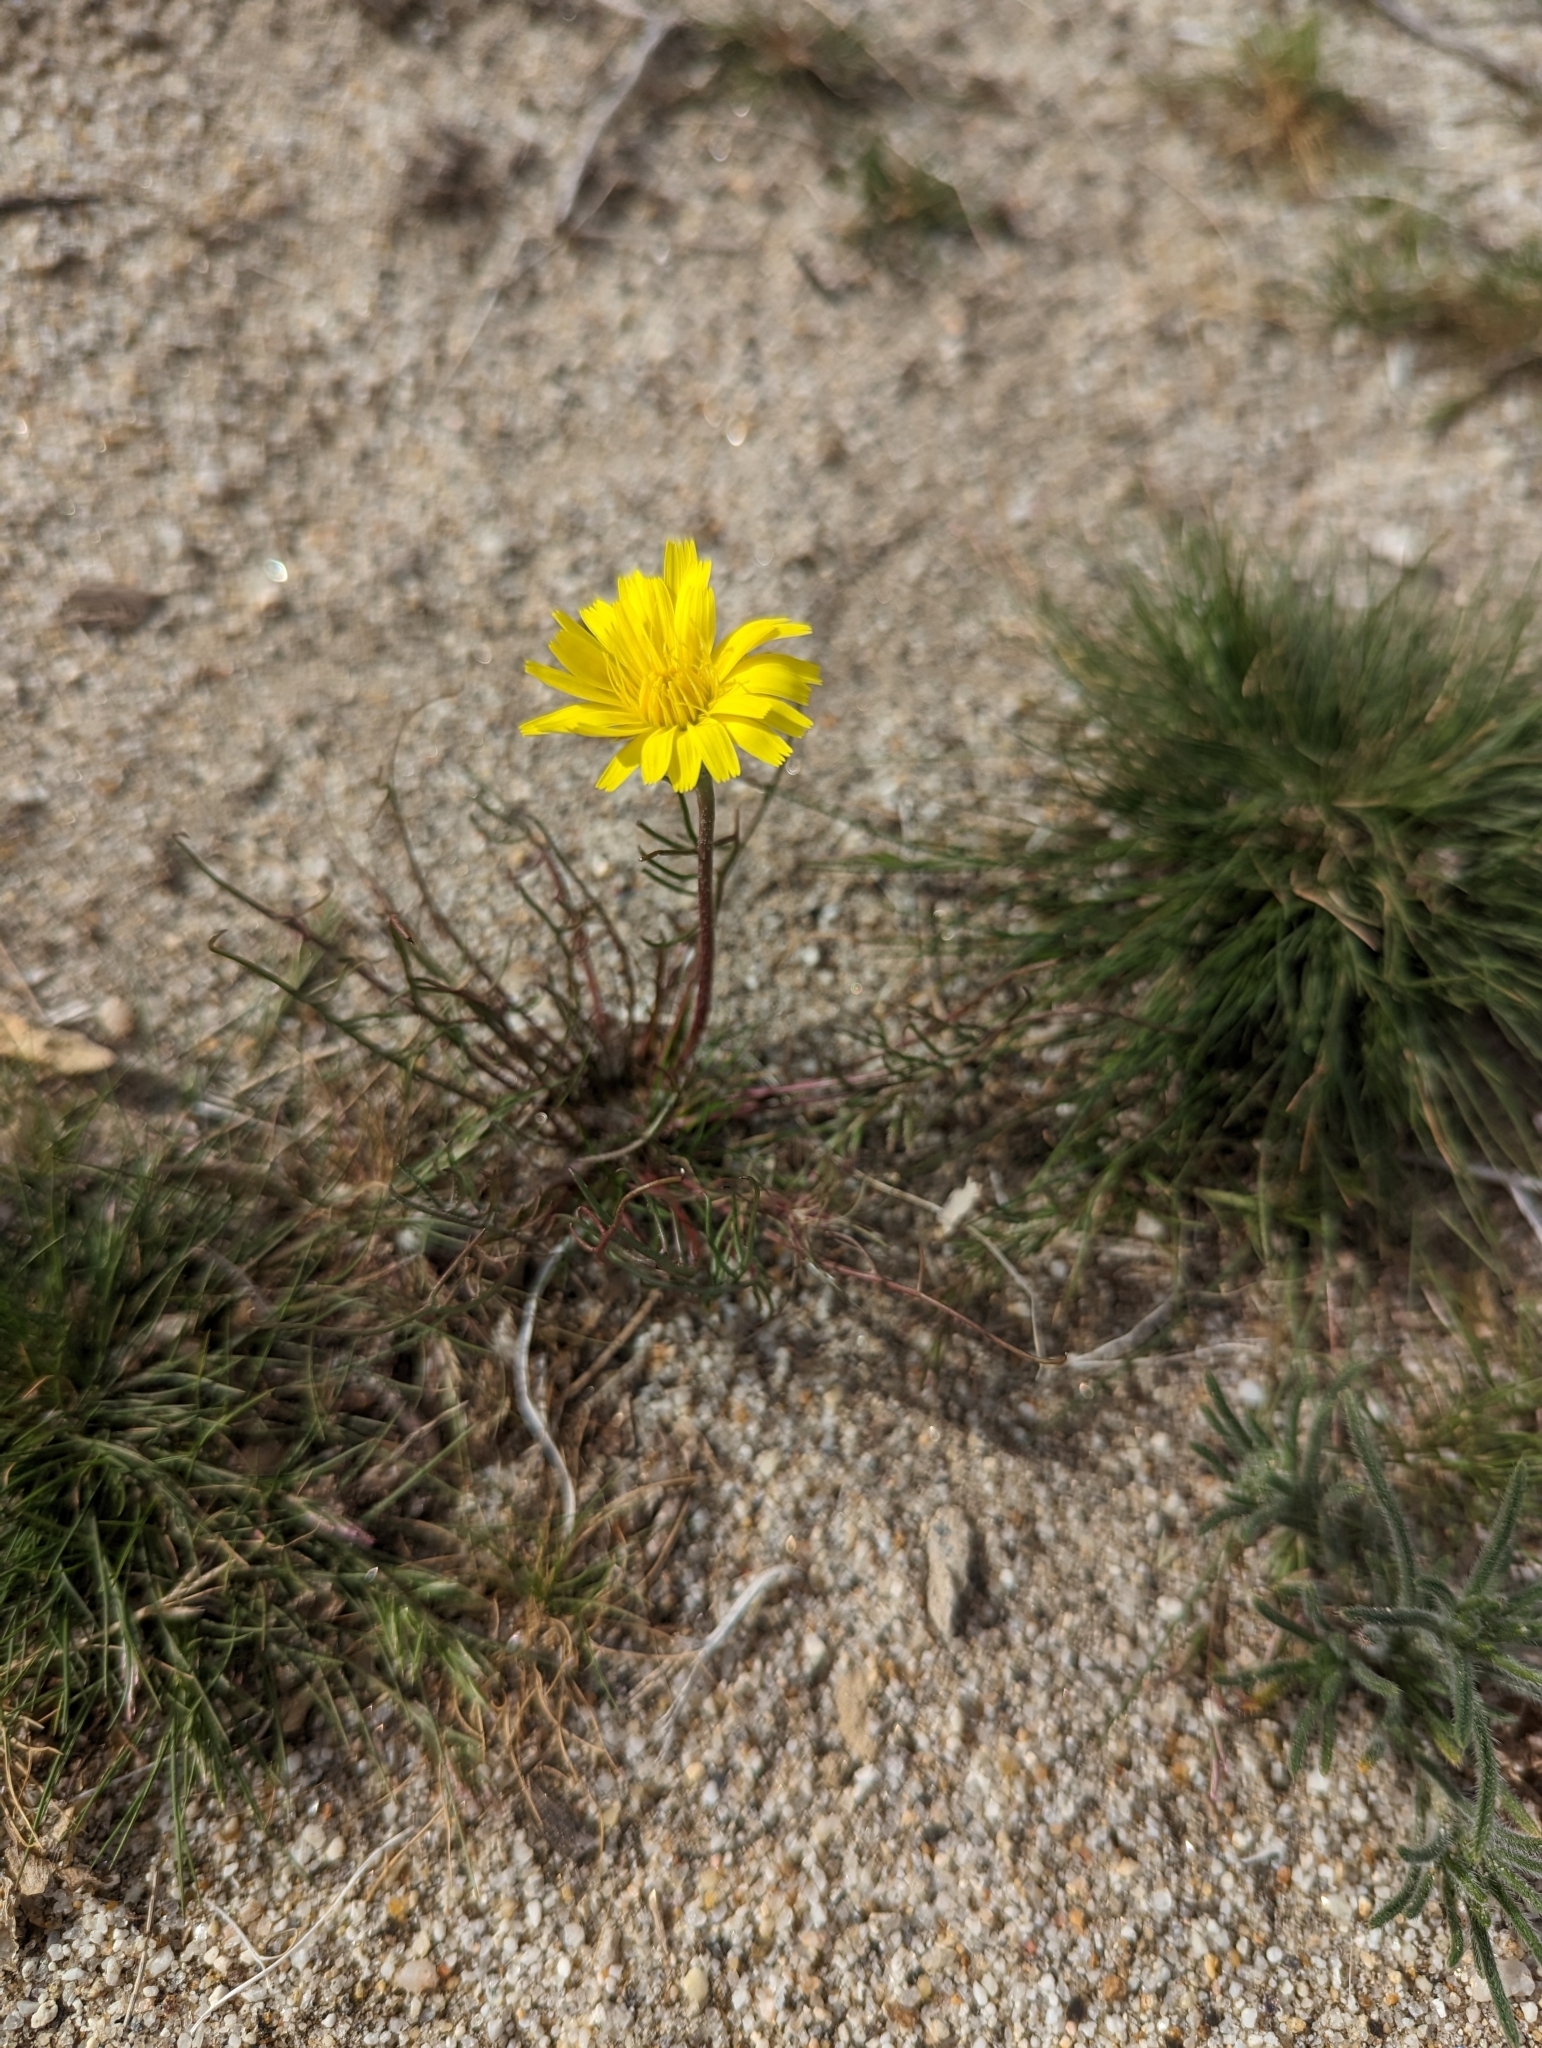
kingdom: Plantae
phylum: Tracheophyta
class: Magnoliopsida
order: Asterales
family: Asteraceae
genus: Malacothrix
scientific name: Malacothrix glabrata
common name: Smooth desert-dandelion
